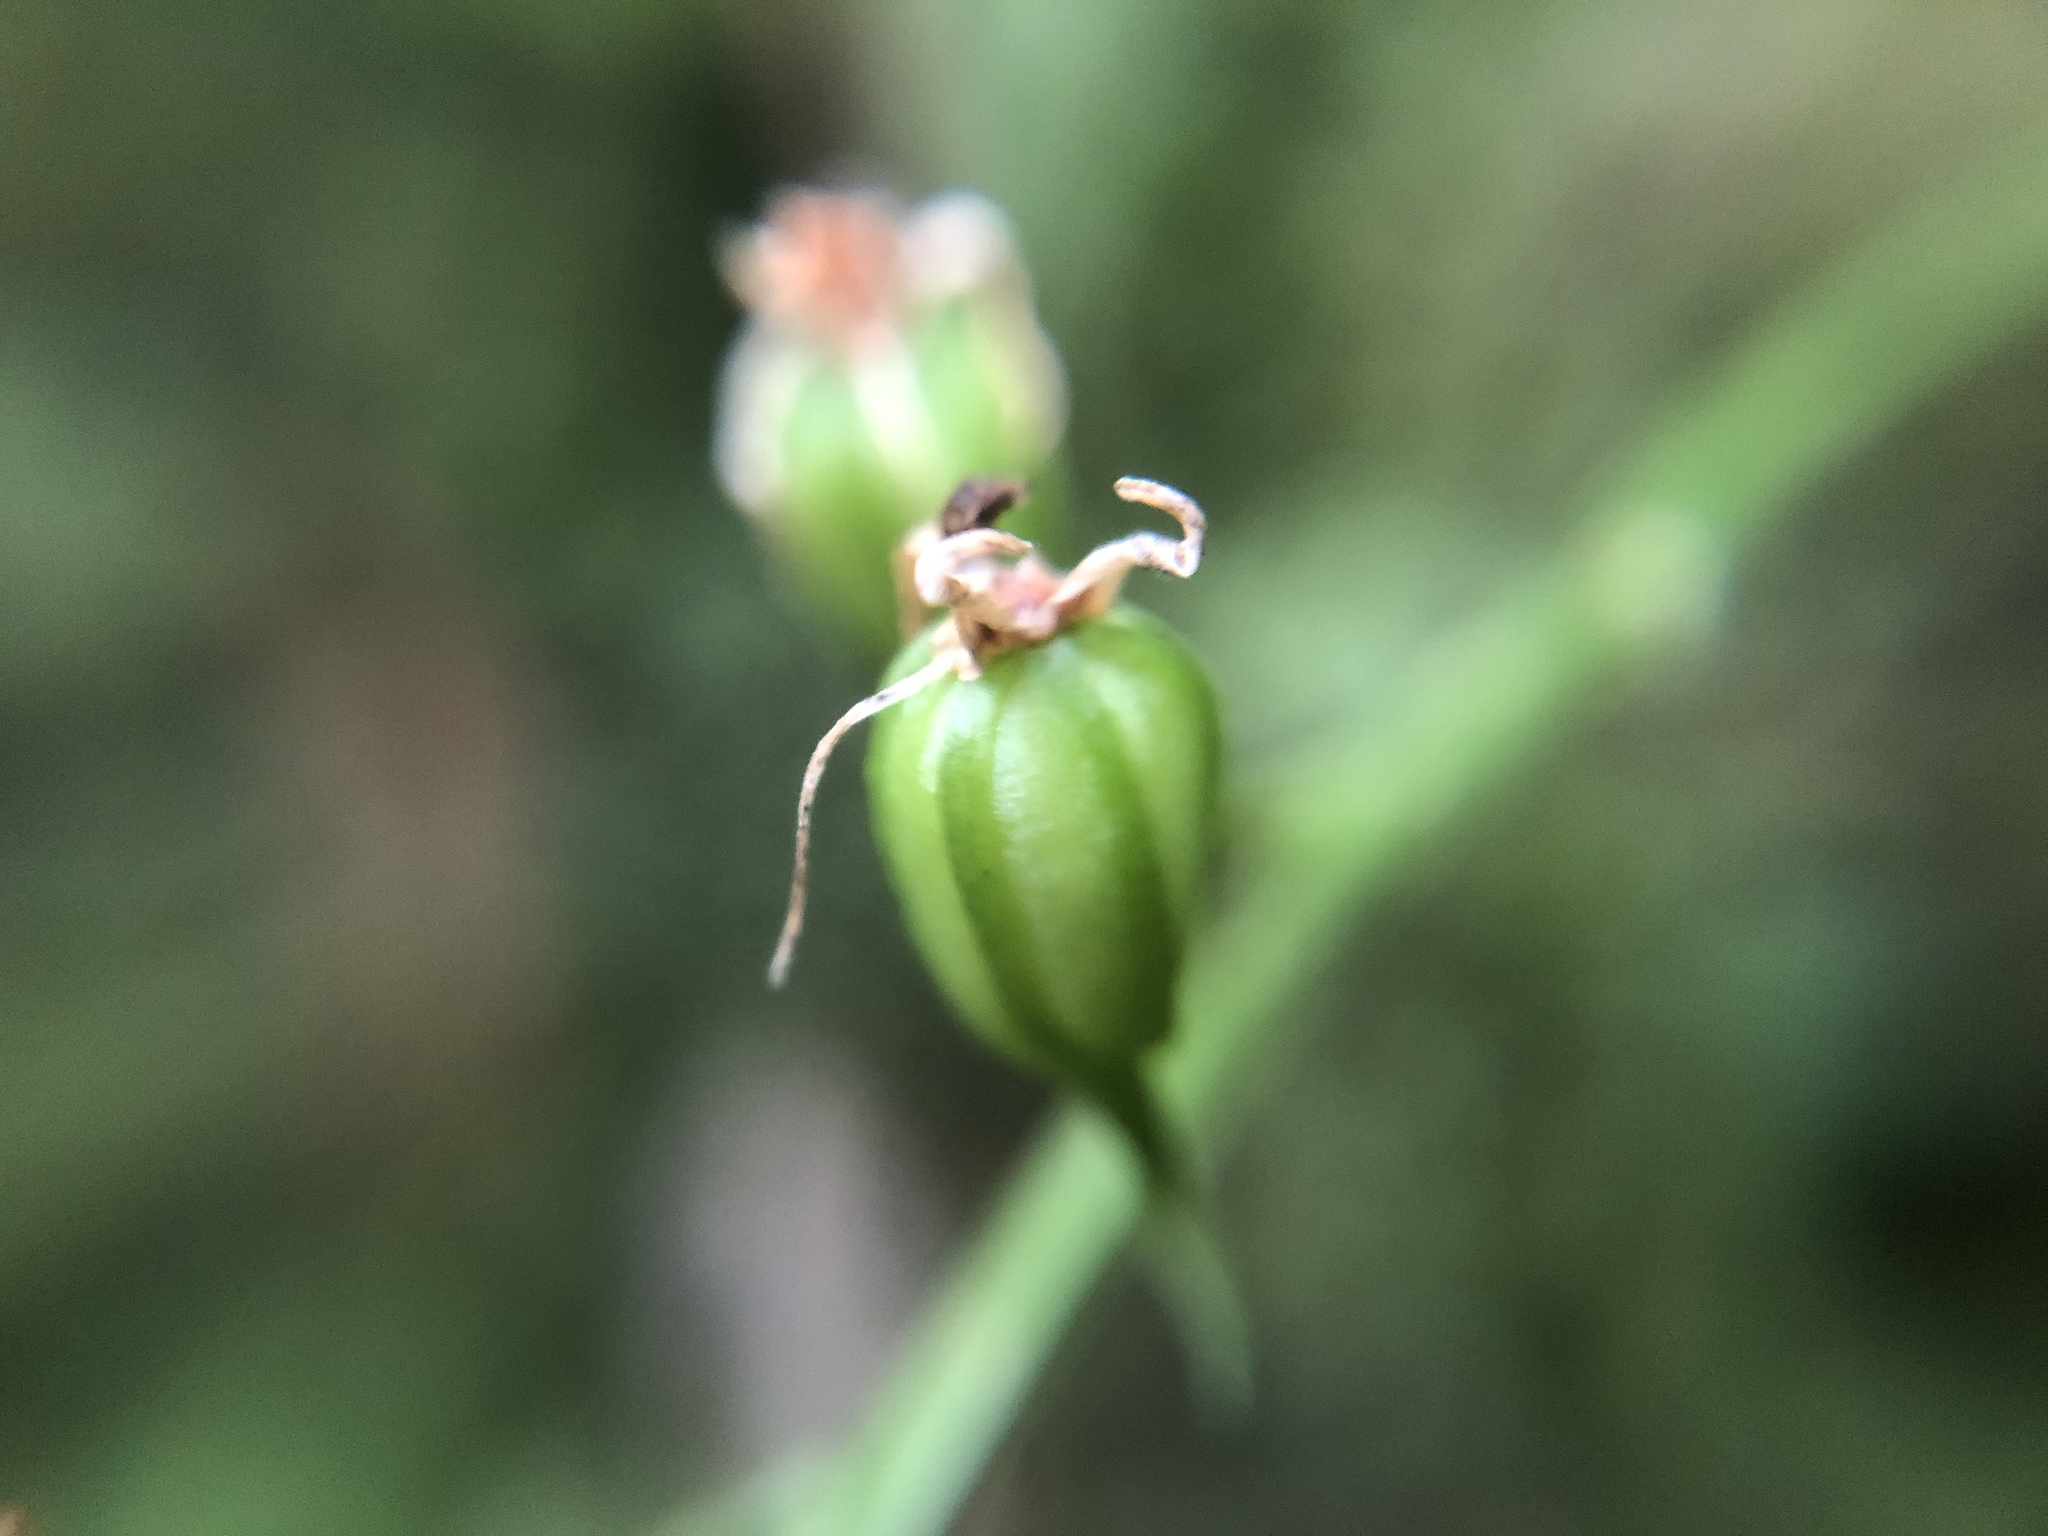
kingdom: Plantae
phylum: Tracheophyta
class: Liliopsida
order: Asparagales
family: Orchidaceae
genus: Liparis
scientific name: Liparis bootanensis
